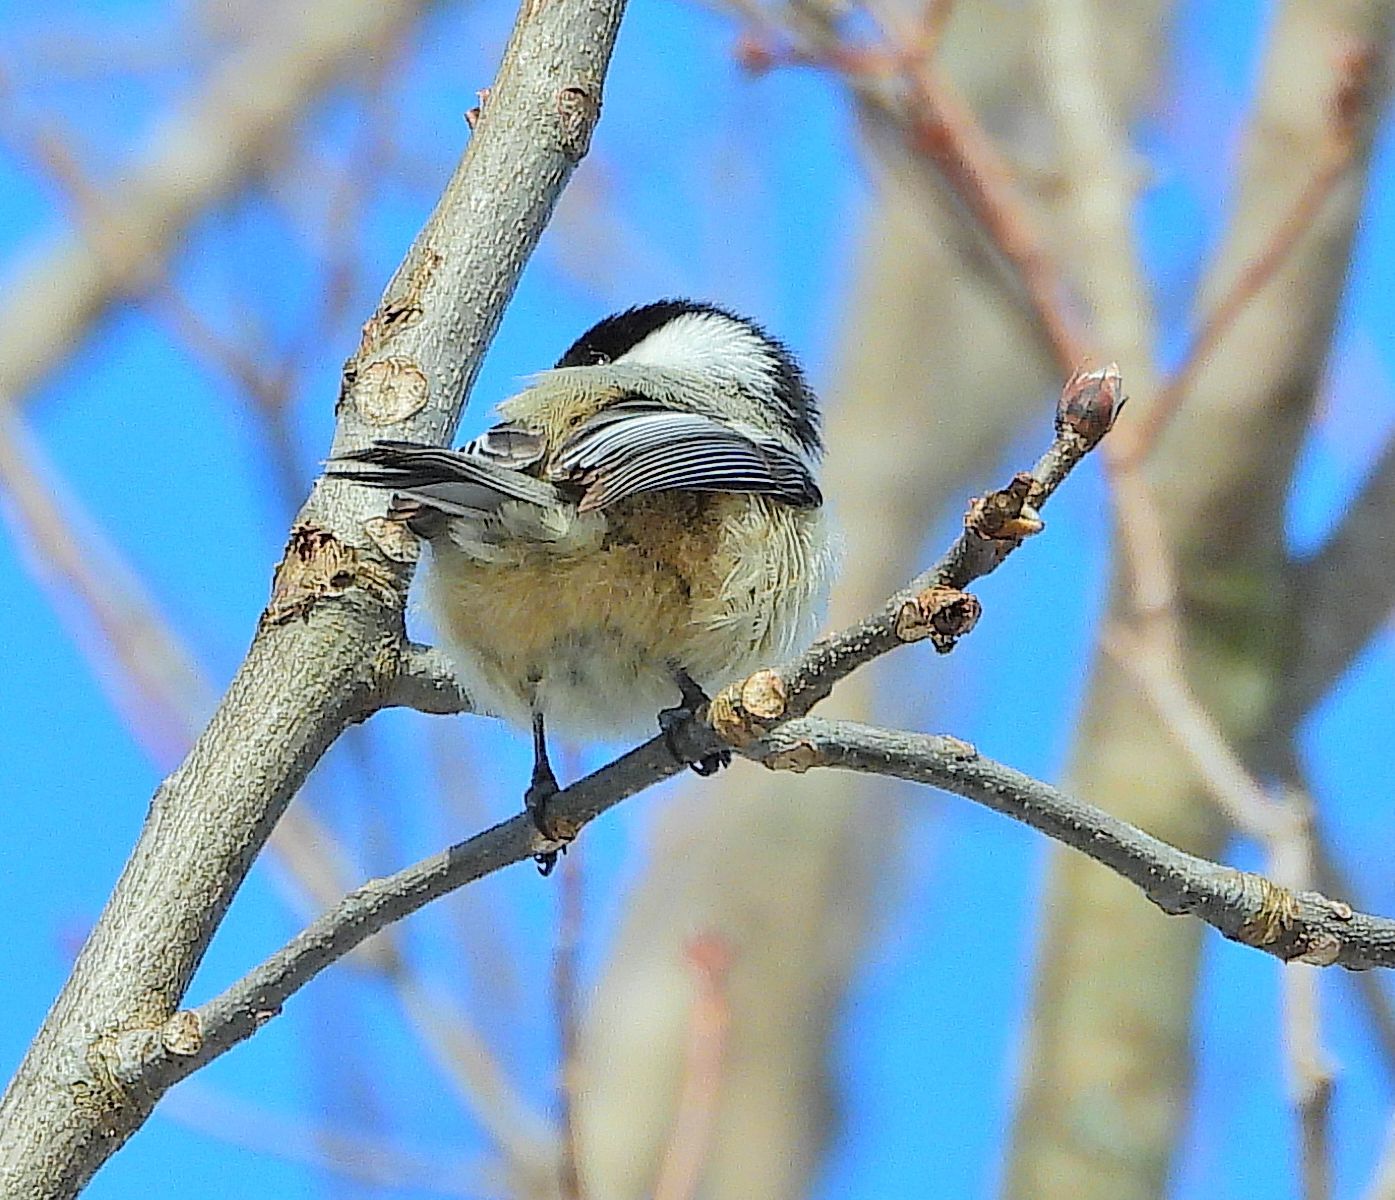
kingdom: Animalia
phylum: Chordata
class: Aves
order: Passeriformes
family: Paridae
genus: Poecile
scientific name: Poecile atricapillus
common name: Black-capped chickadee
